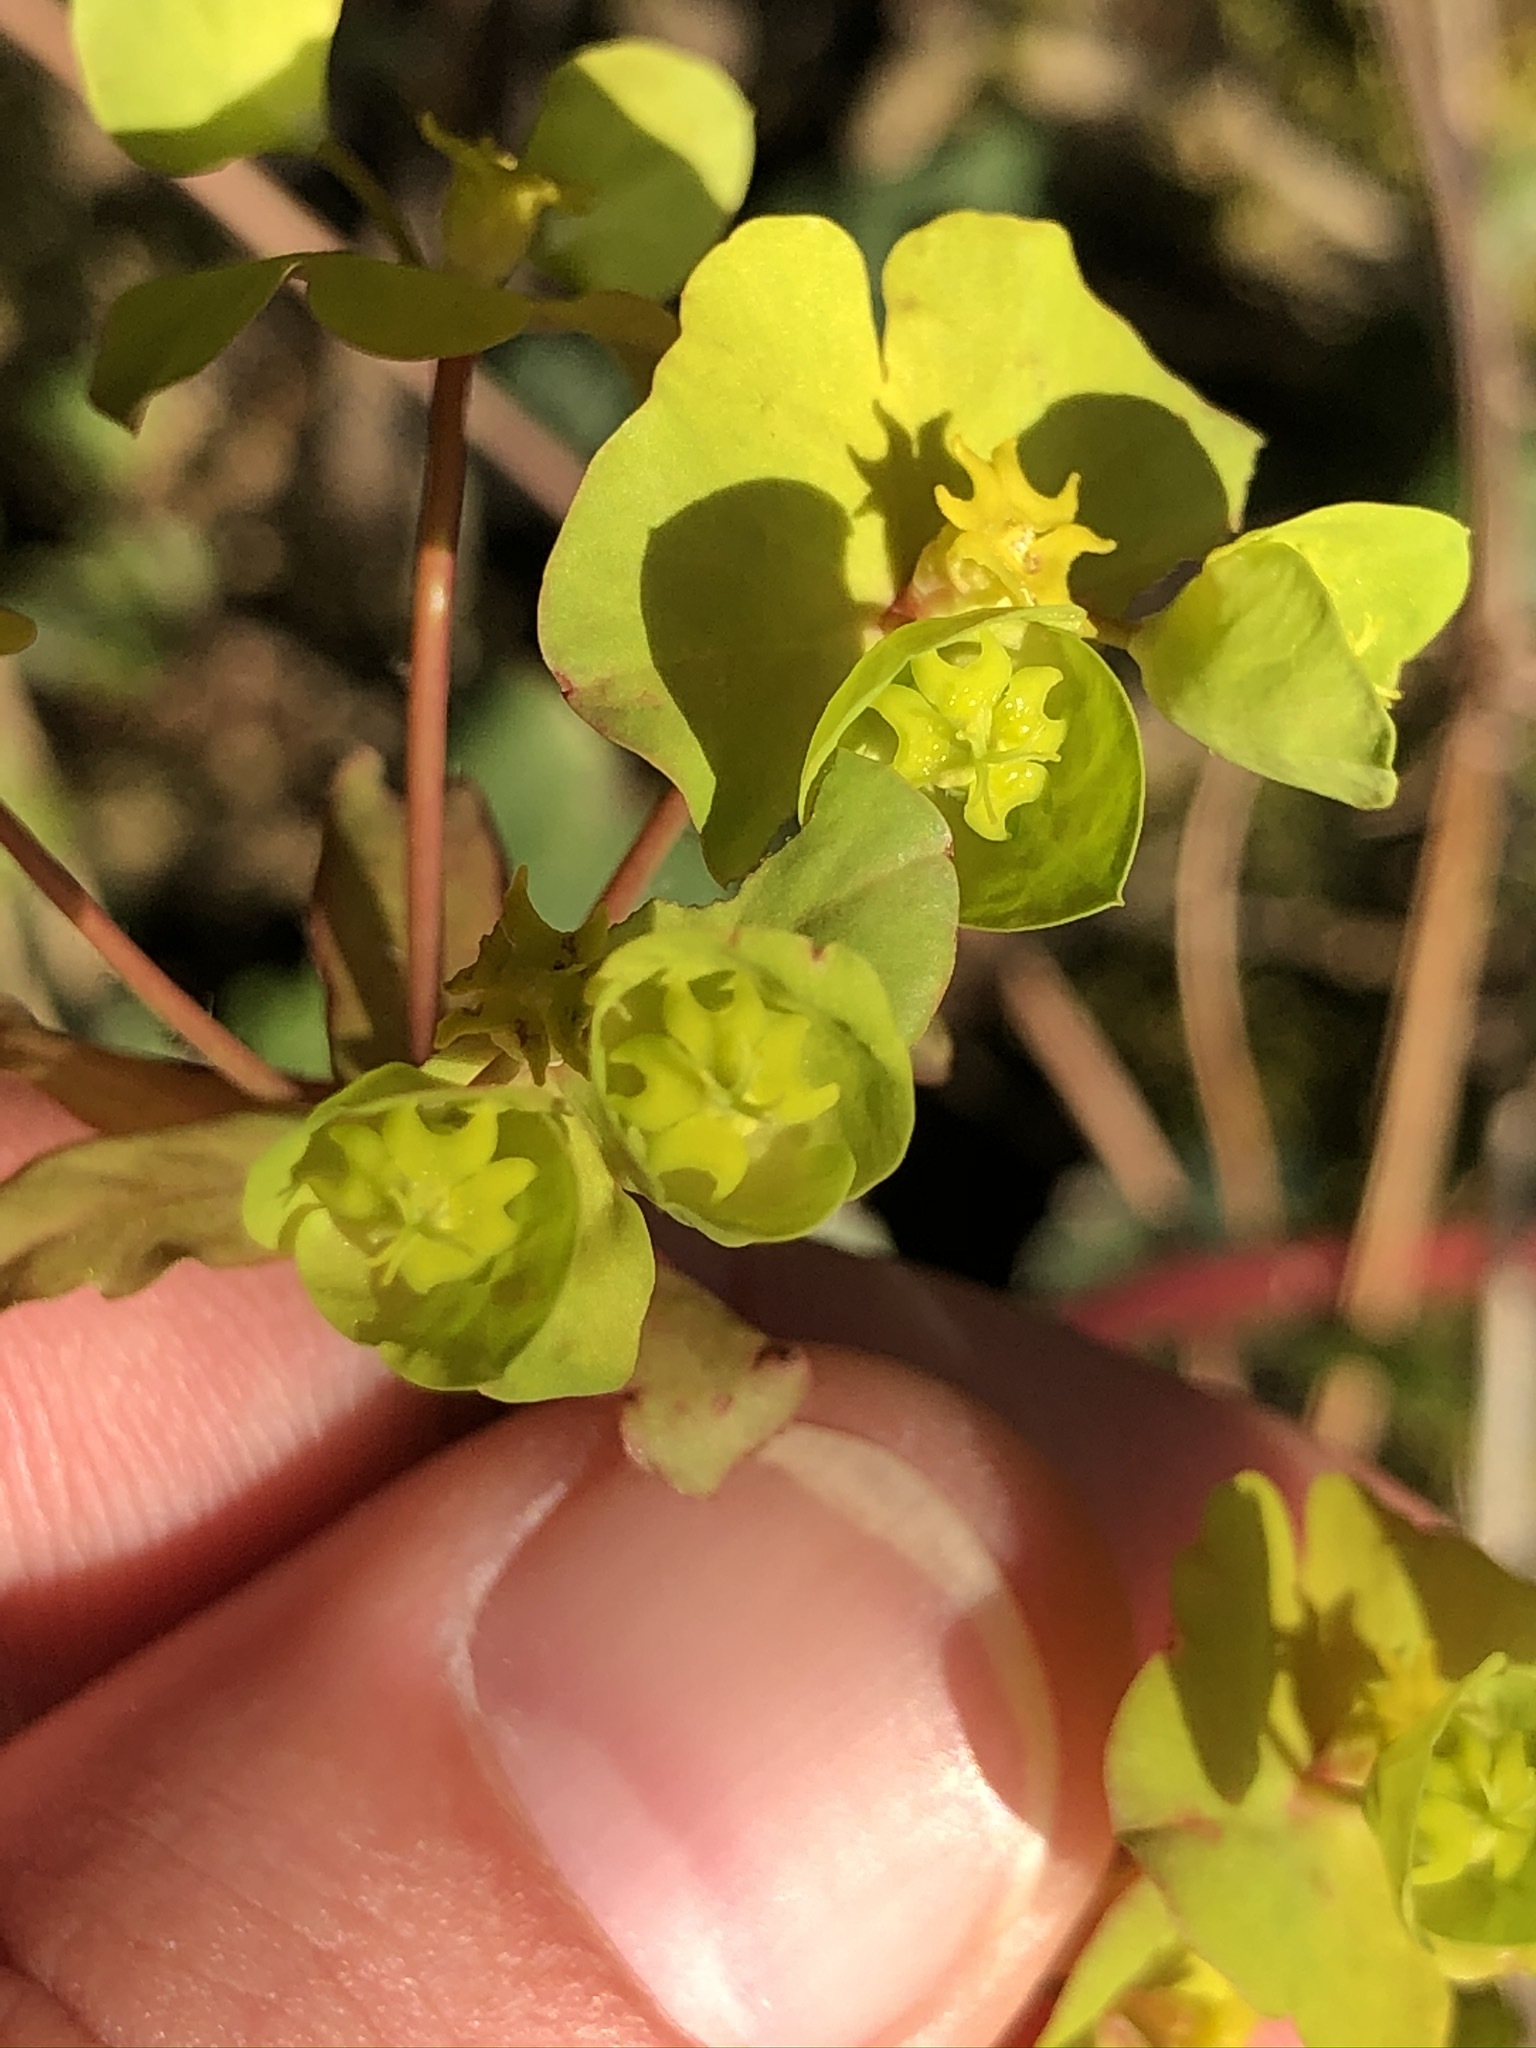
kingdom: Plantae
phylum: Tracheophyta
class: Magnoliopsida
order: Malpighiales
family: Euphorbiaceae
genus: Euphorbia
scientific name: Euphorbia amygdaloides
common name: Wood spurge
